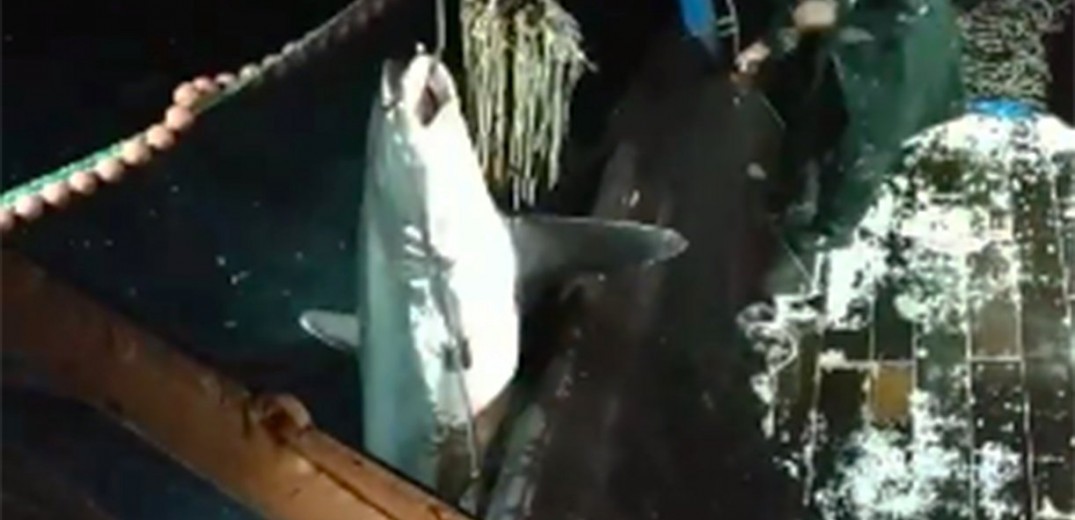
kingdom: Animalia
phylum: Chordata
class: Elasmobranchii
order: Lamniformes
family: Alopiidae
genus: Alopias
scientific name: Alopias vulpinus
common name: Thresher shark
